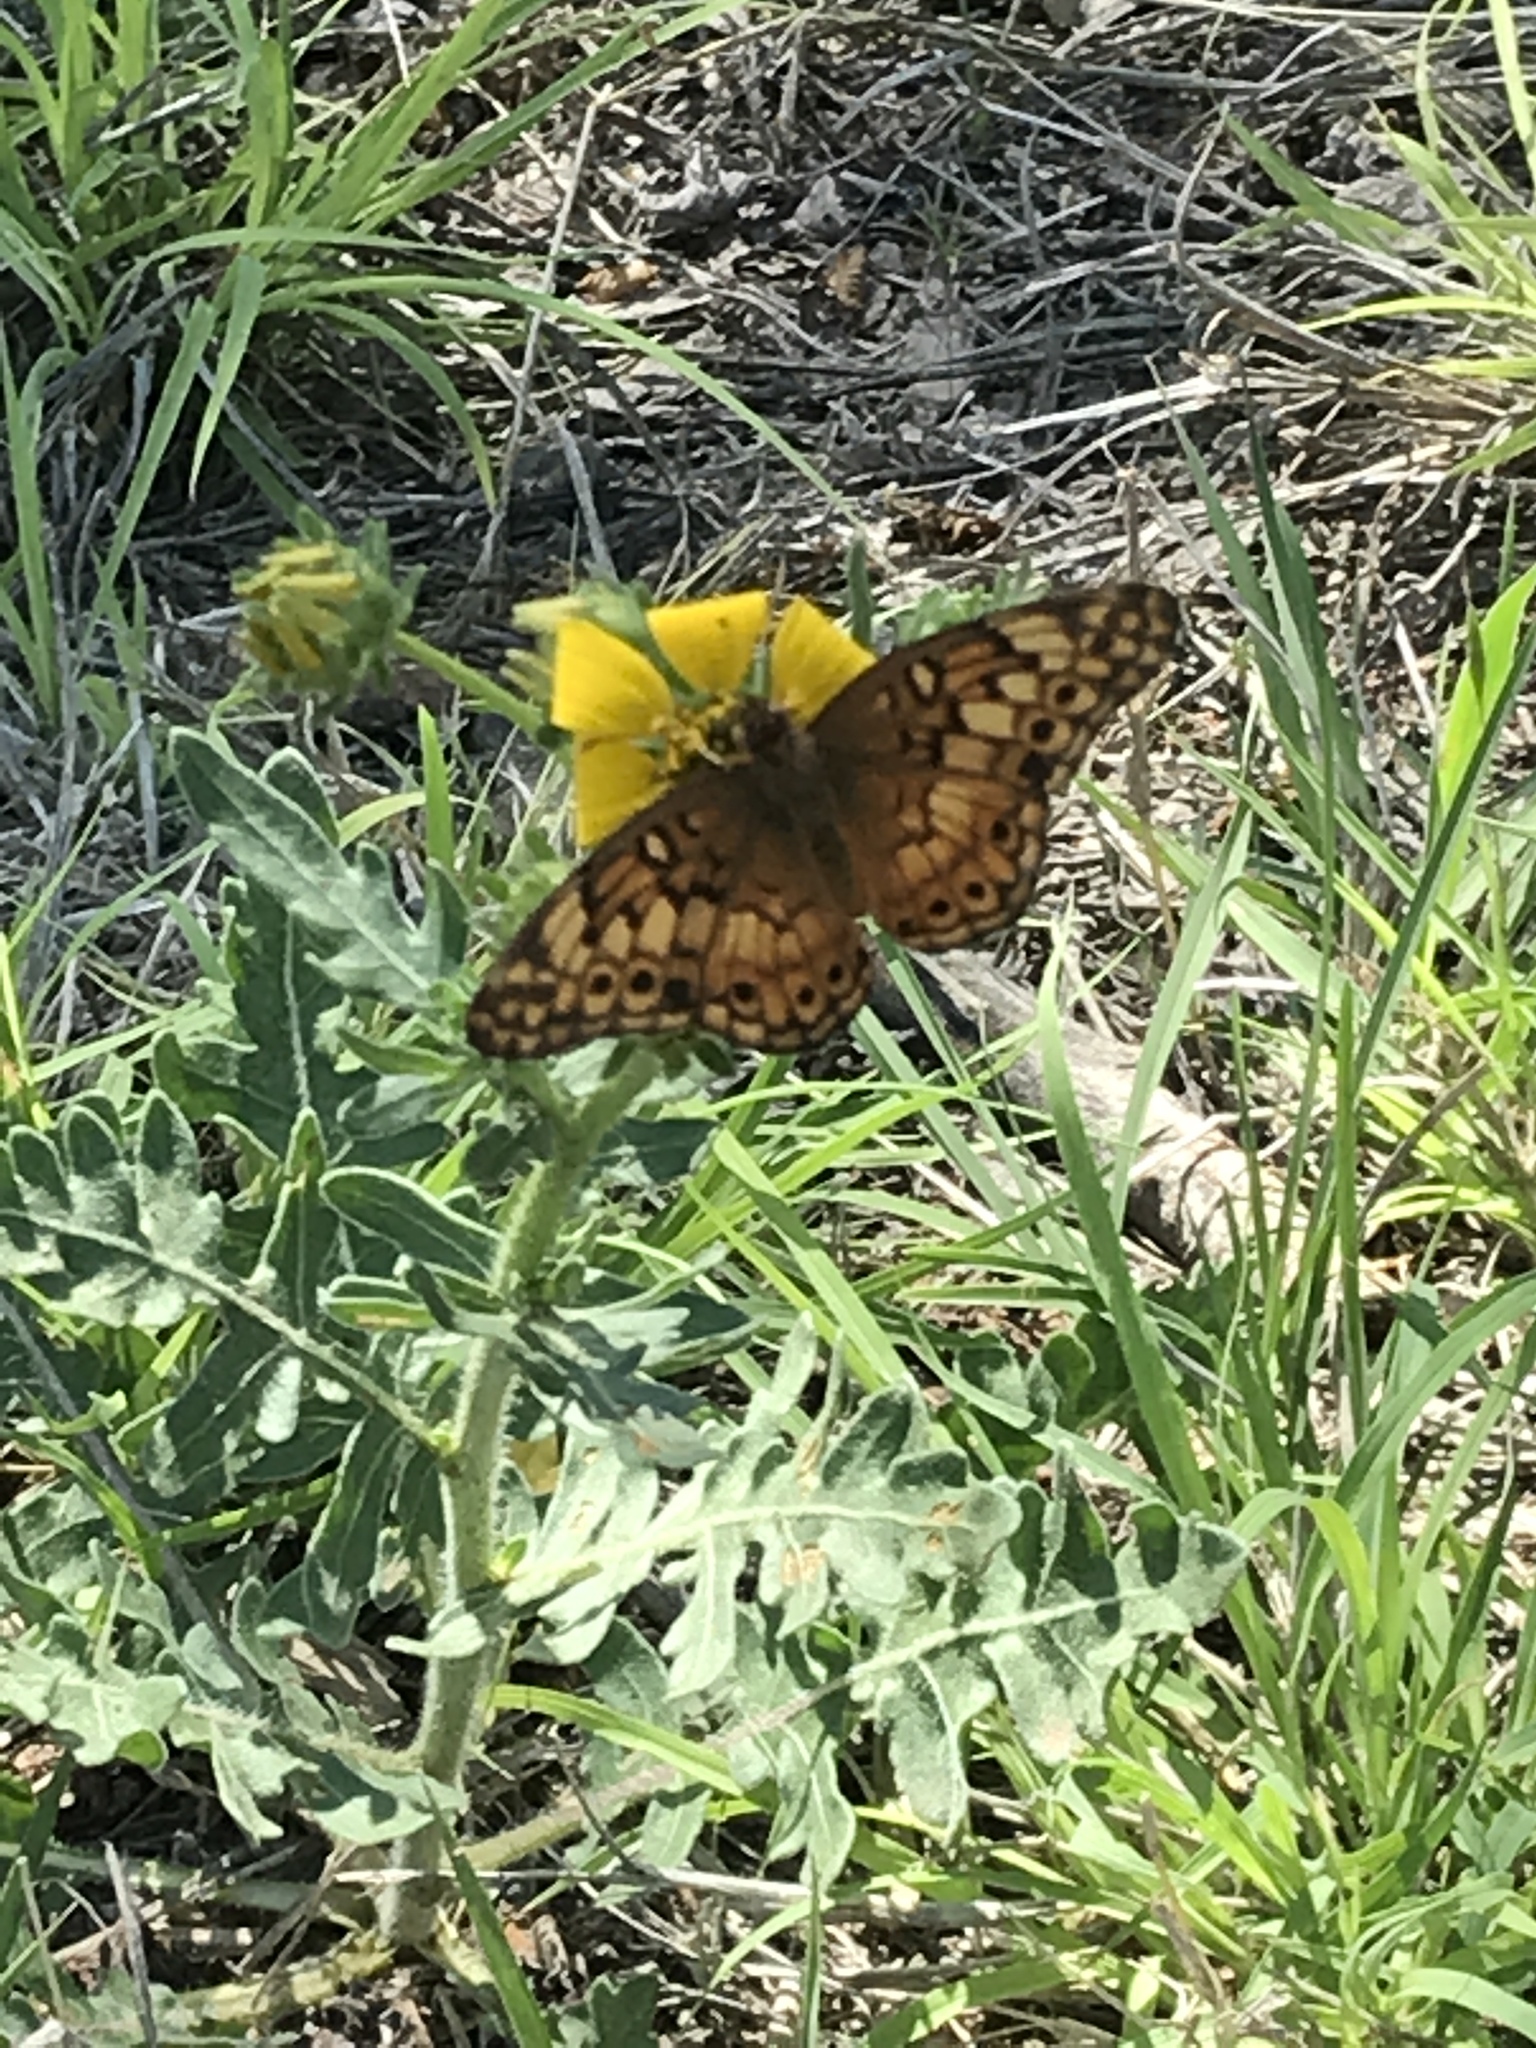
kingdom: Animalia
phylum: Arthropoda
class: Insecta
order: Lepidoptera
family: Nymphalidae
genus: Euptoieta
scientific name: Euptoieta claudia
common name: Variegated fritillary
